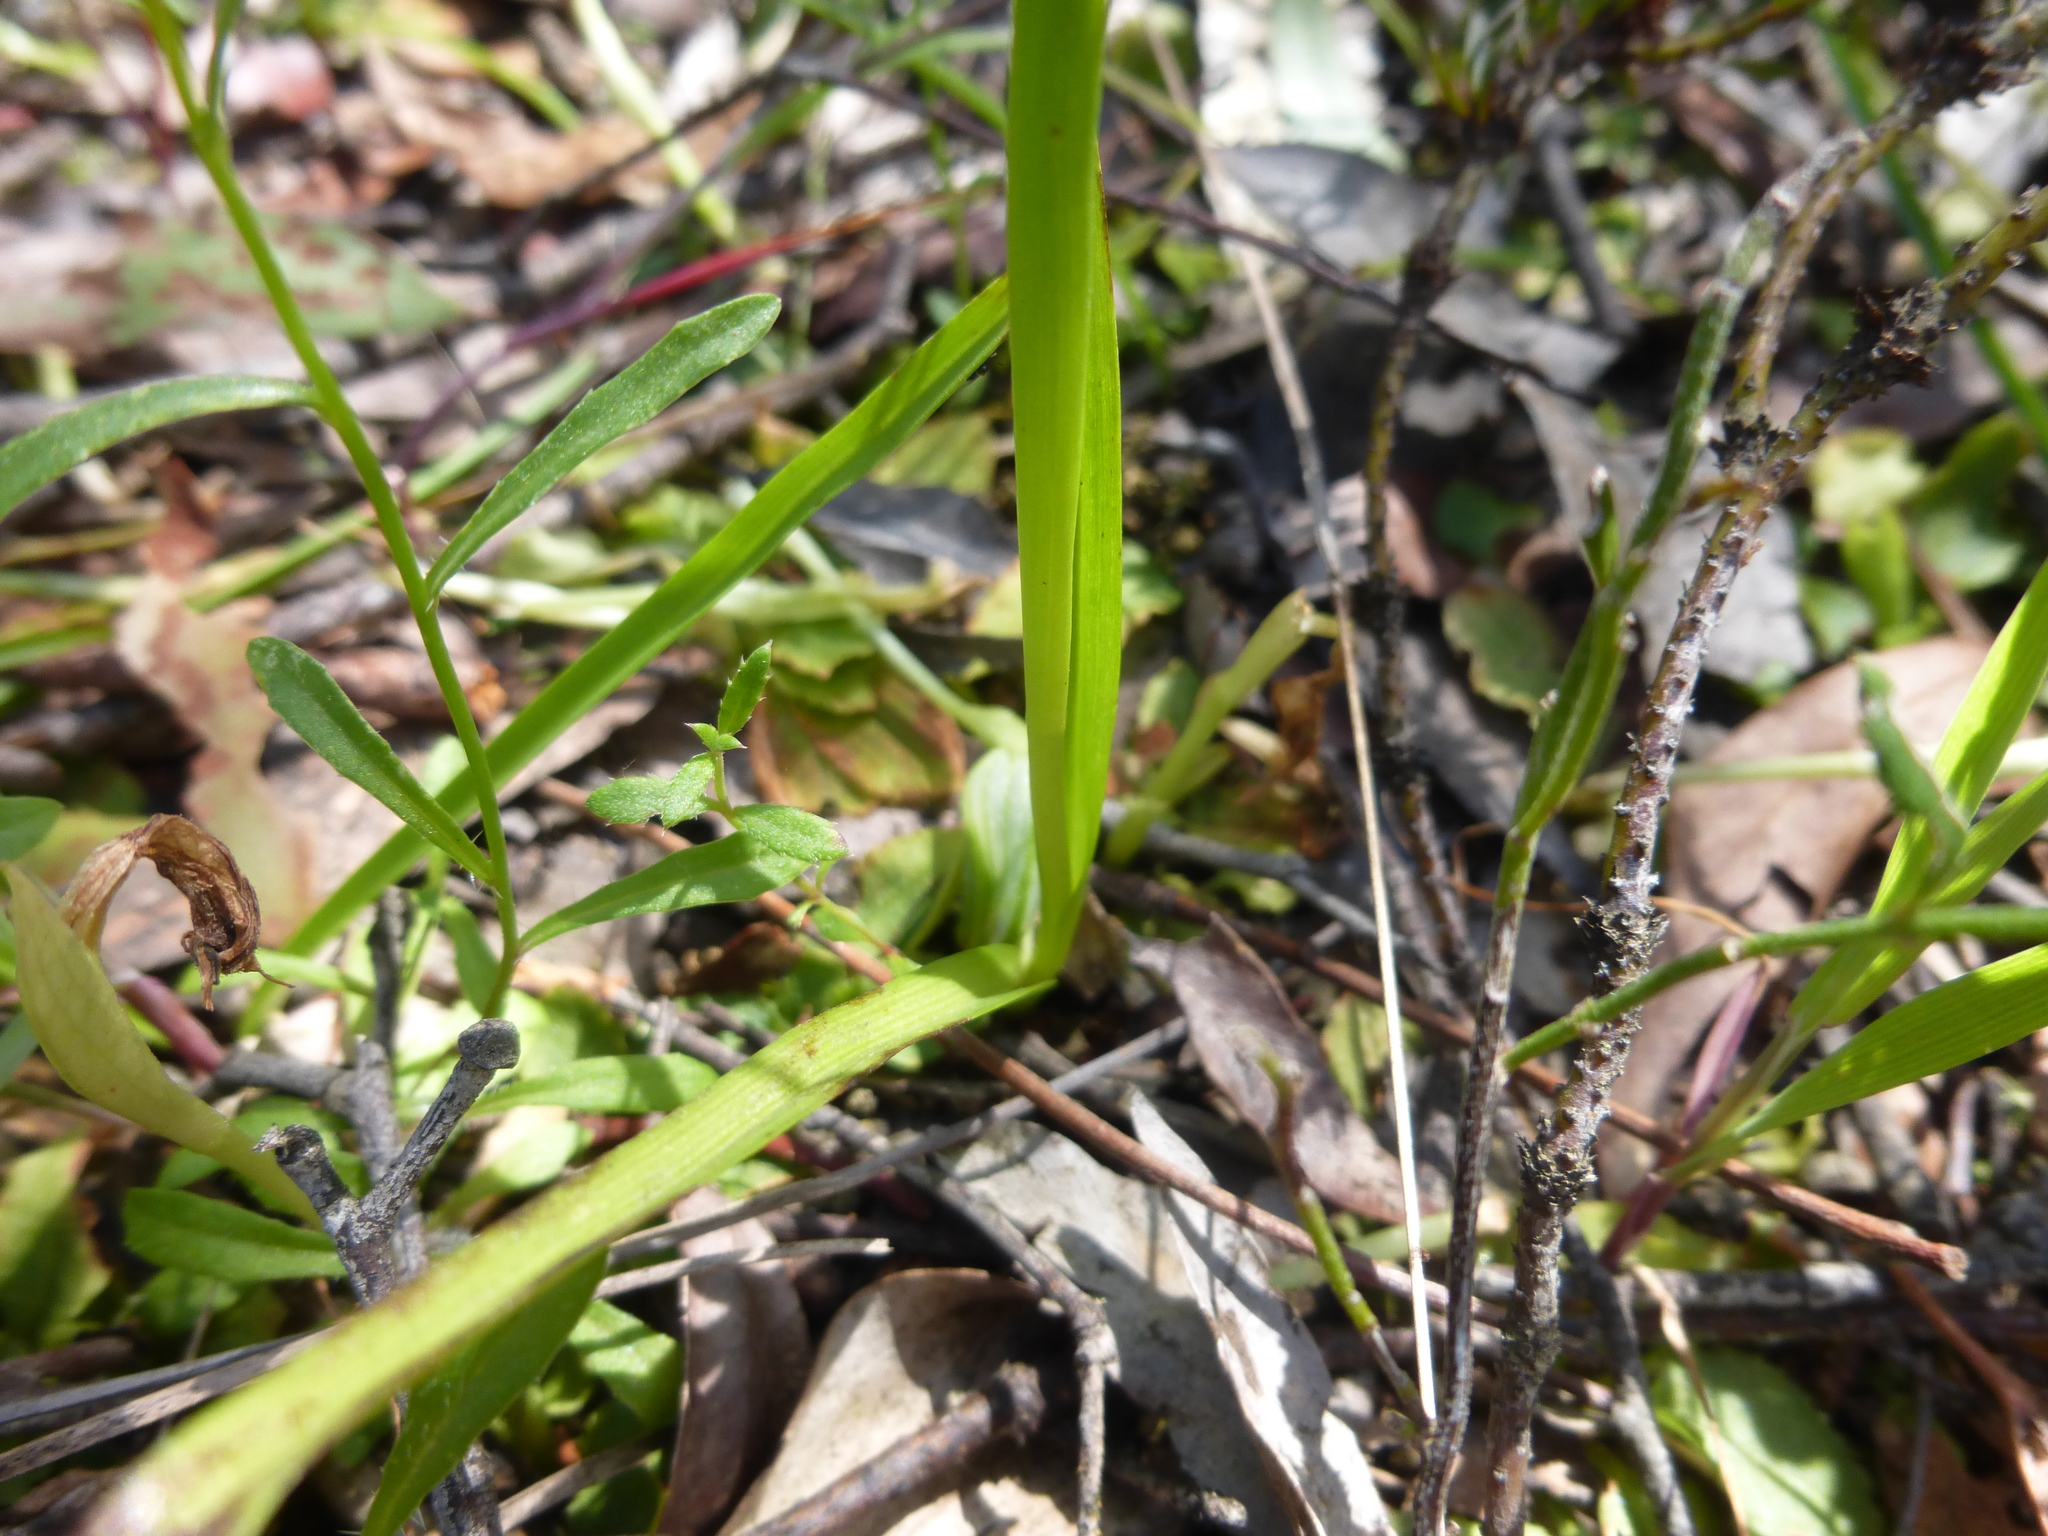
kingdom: Plantae
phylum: Tracheophyta
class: Liliopsida
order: Asparagales
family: Orchidaceae
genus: Diuris
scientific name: Diuris orientis
